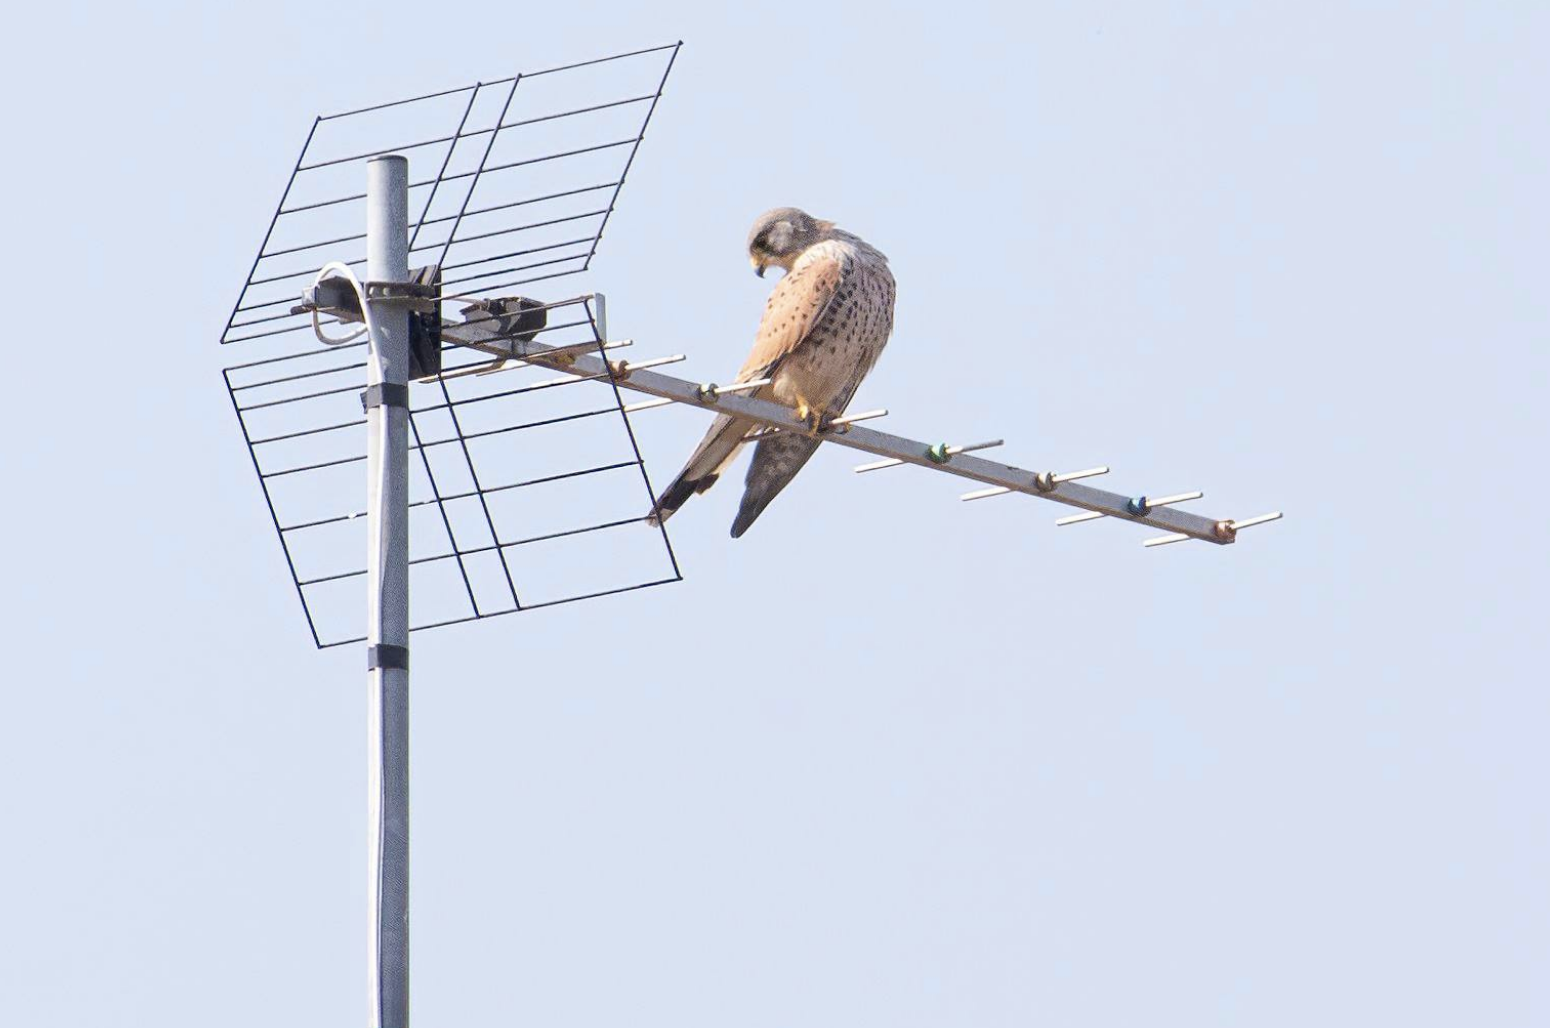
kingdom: Animalia
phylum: Chordata
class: Aves
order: Falconiformes
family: Falconidae
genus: Falco
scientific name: Falco tinnunculus
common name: Common kestrel
